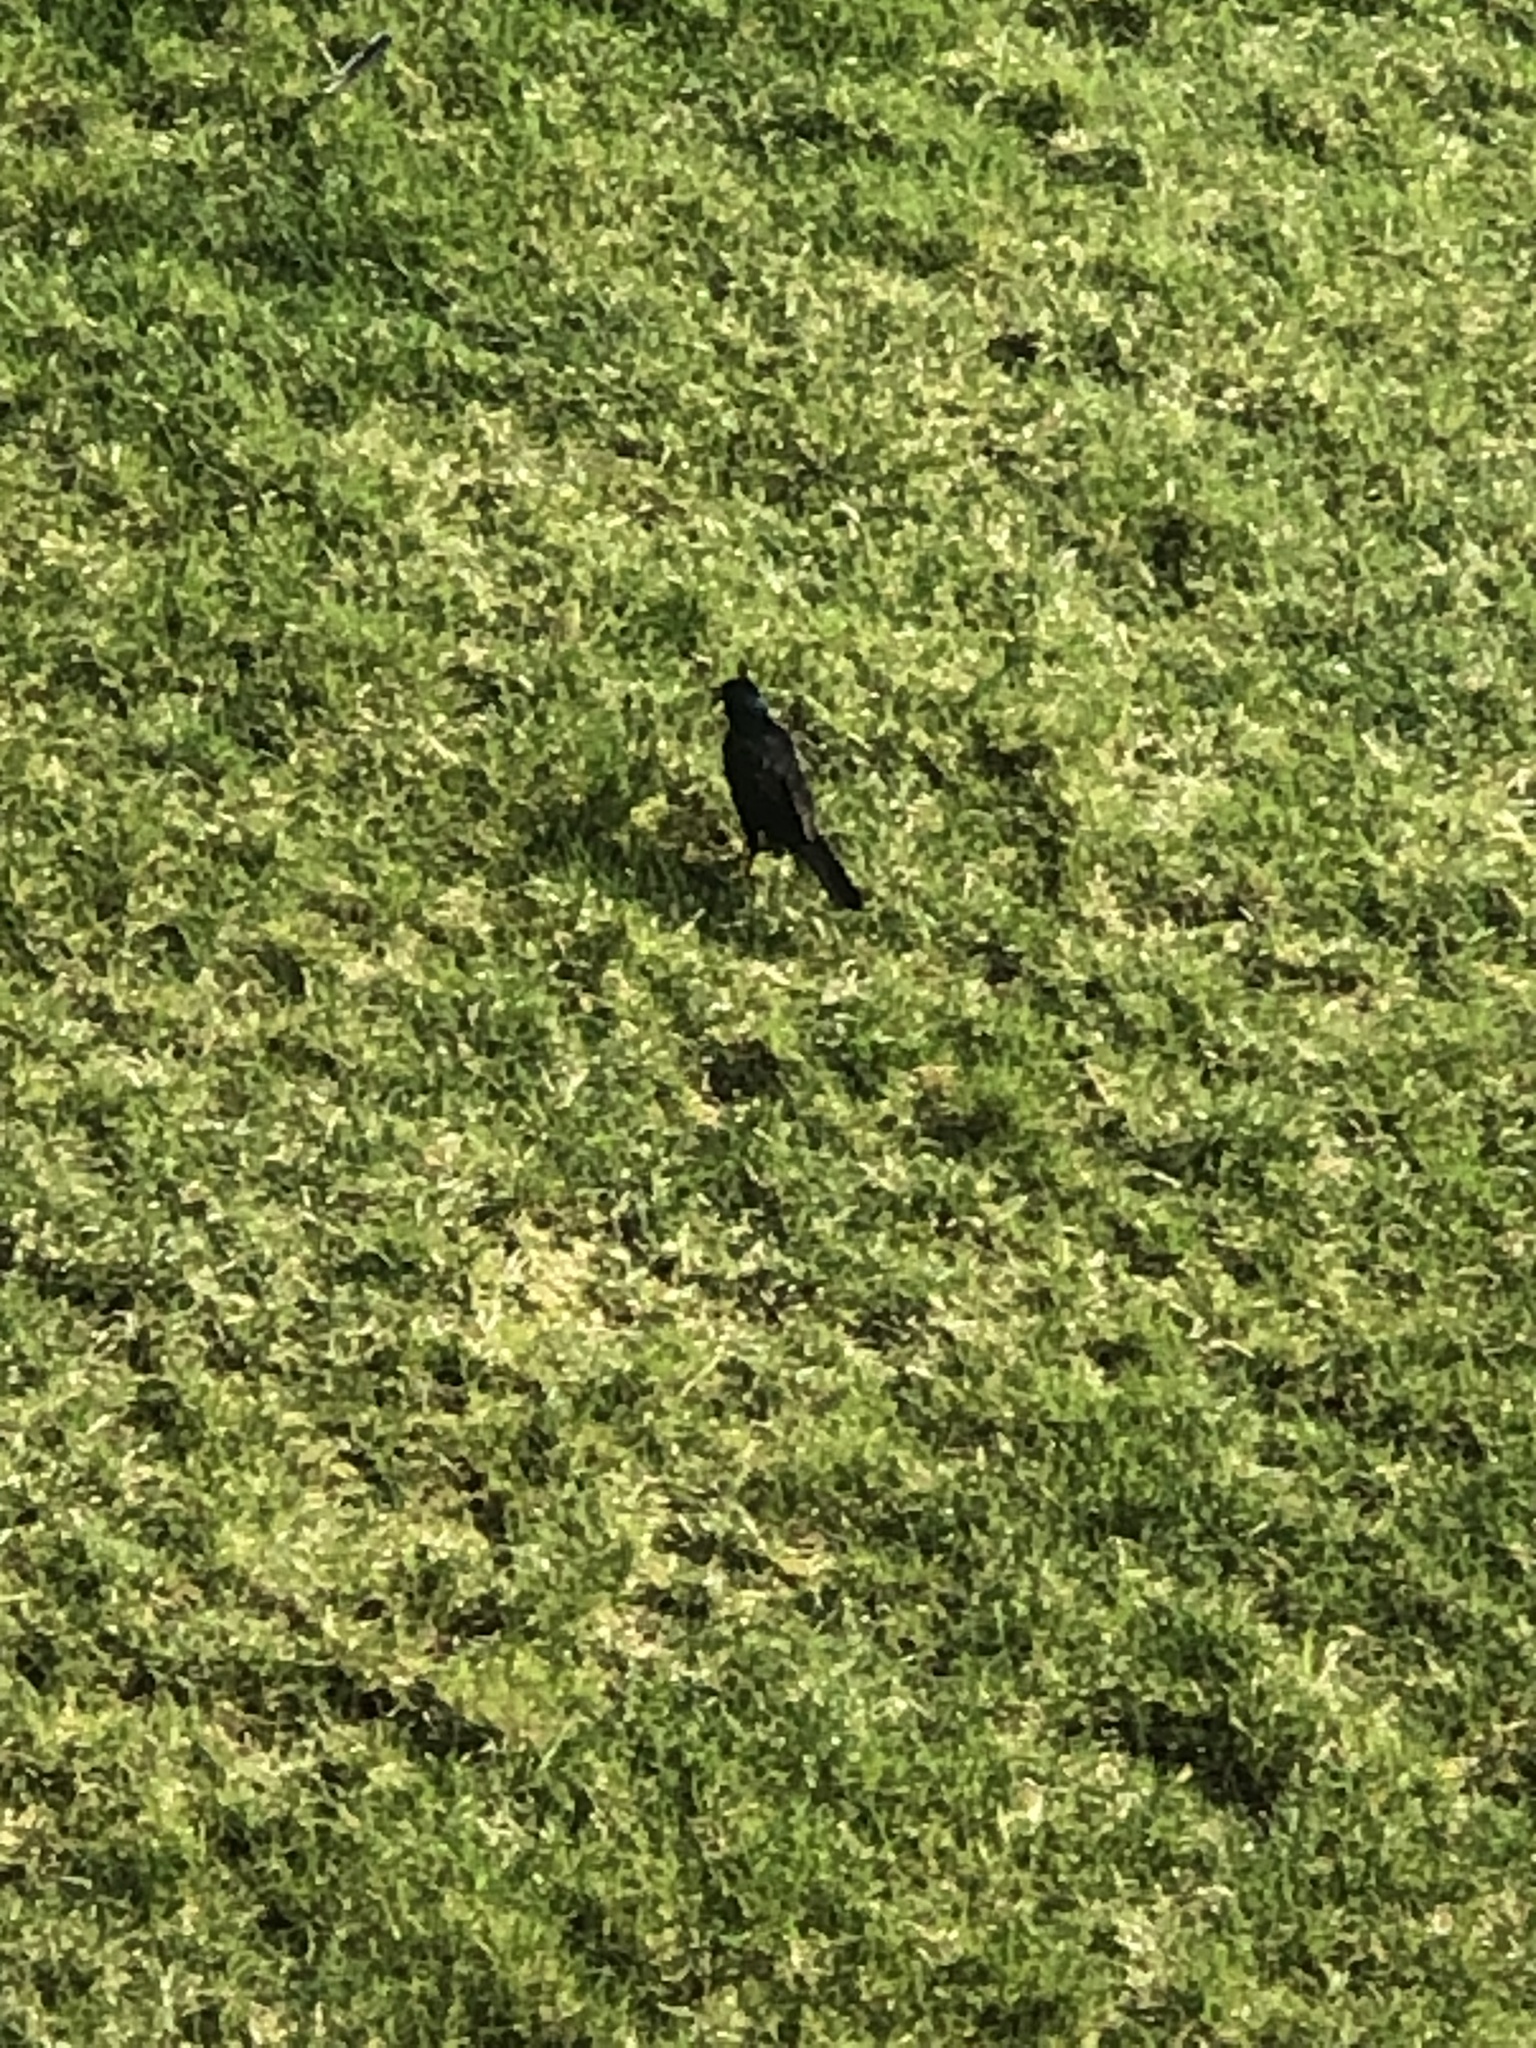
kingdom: Animalia
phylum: Chordata
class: Aves
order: Passeriformes
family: Icteridae
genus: Quiscalus
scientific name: Quiscalus quiscula
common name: Common grackle
